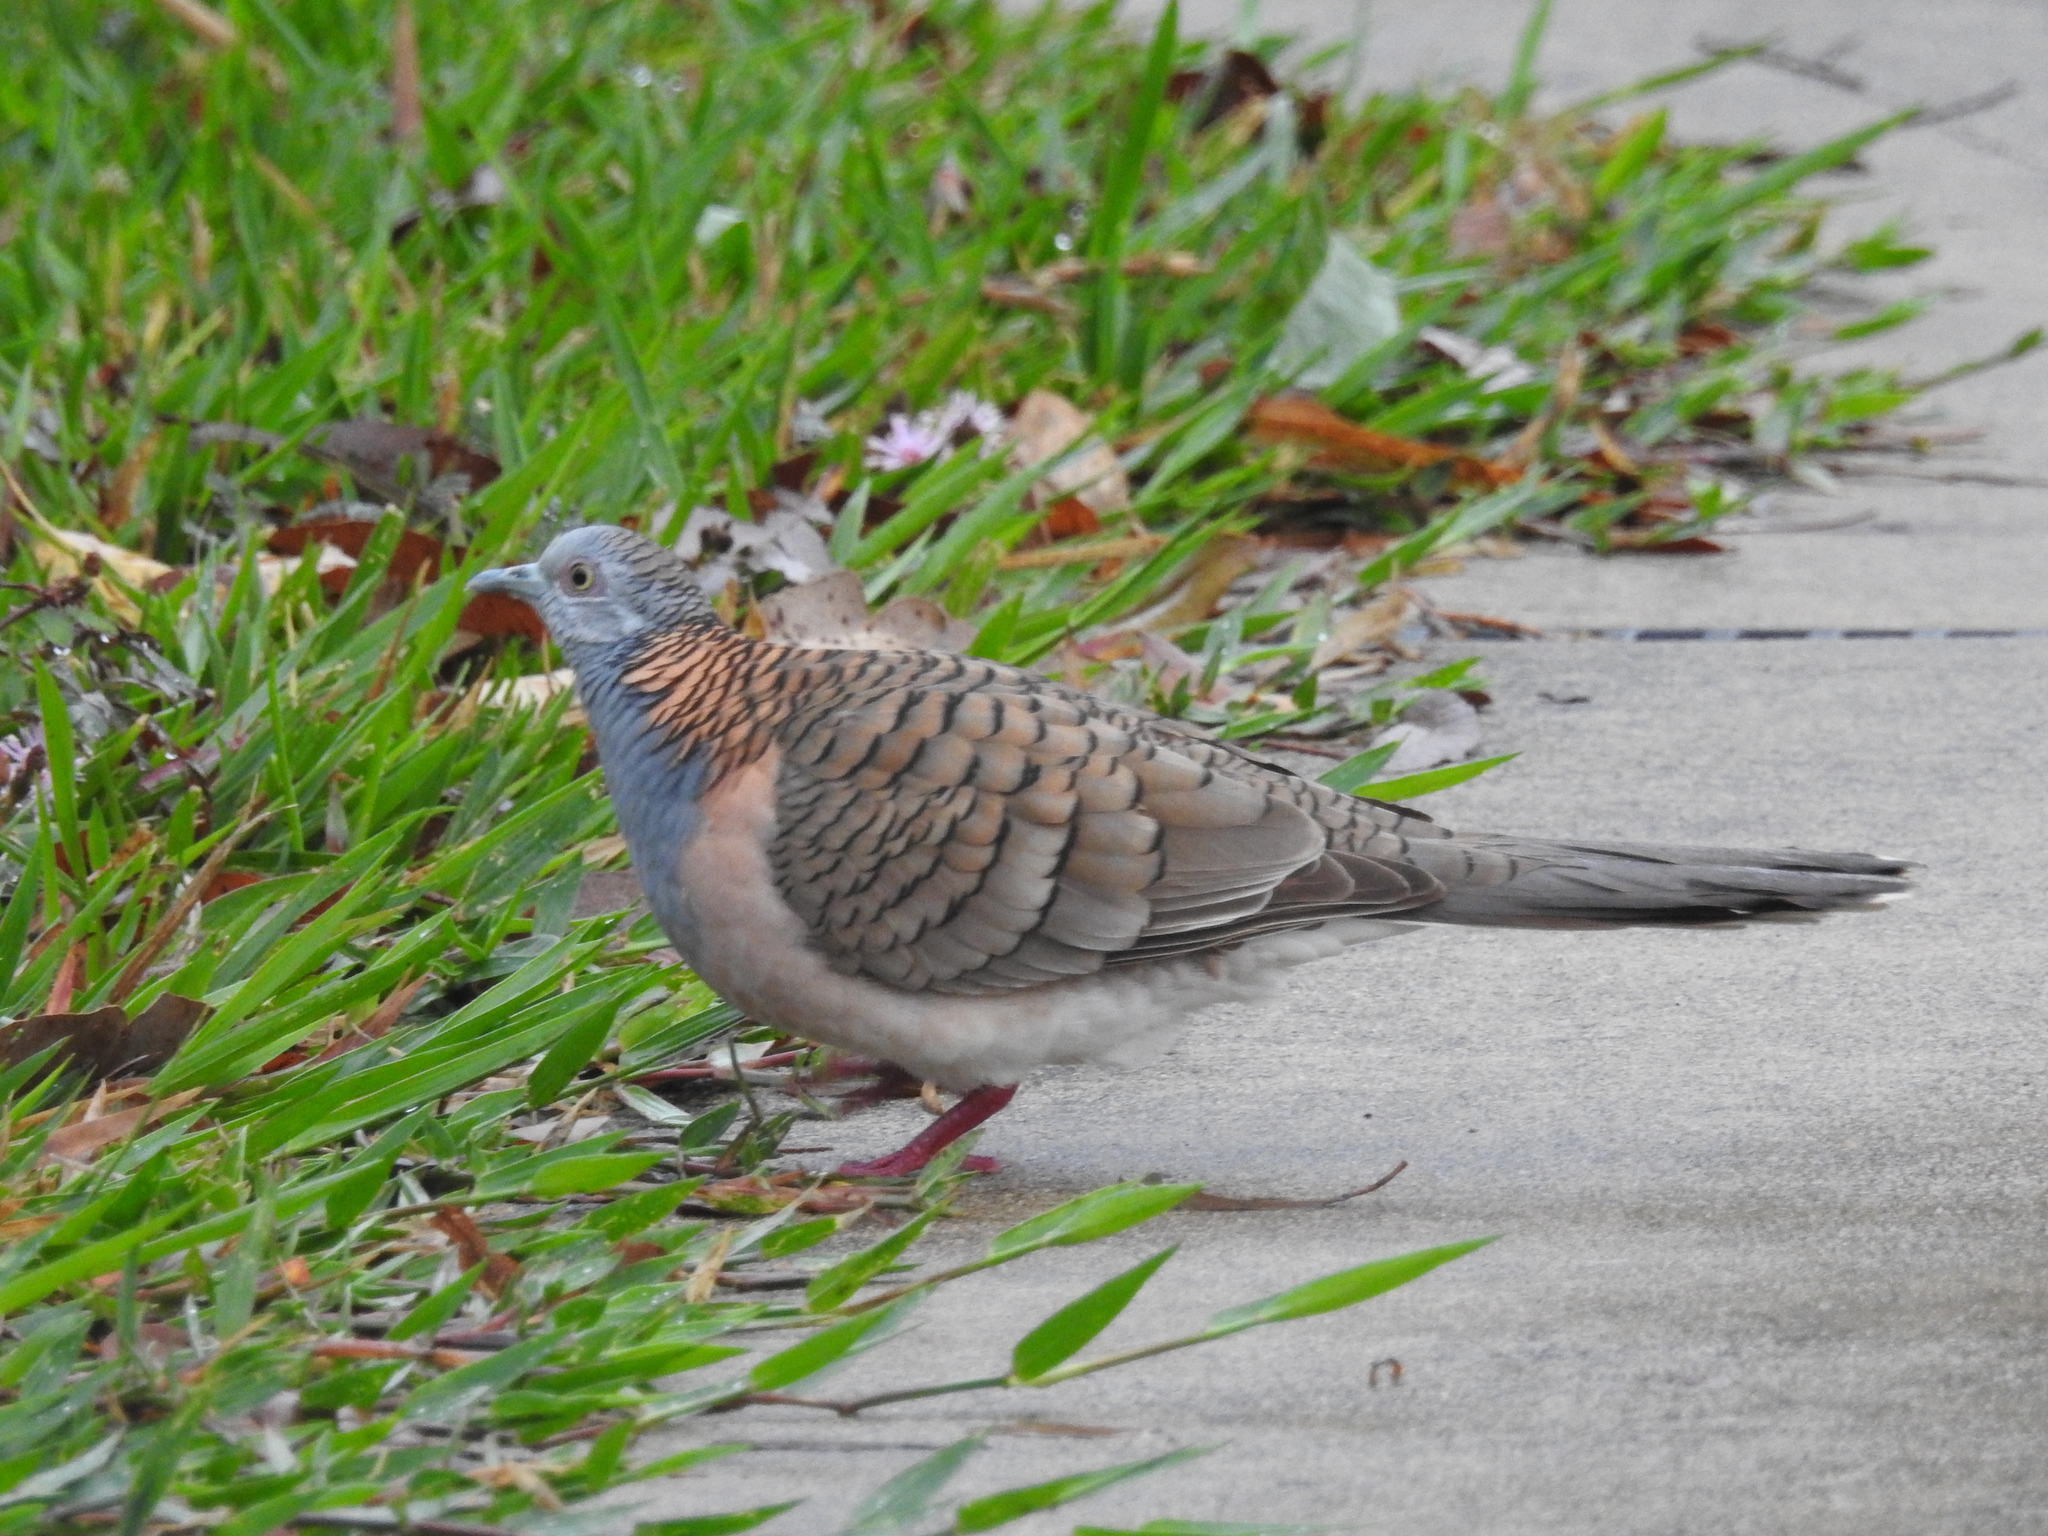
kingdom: Animalia
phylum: Chordata
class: Aves
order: Columbiformes
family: Columbidae
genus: Geopelia
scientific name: Geopelia humeralis
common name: Bar-shouldered dove
